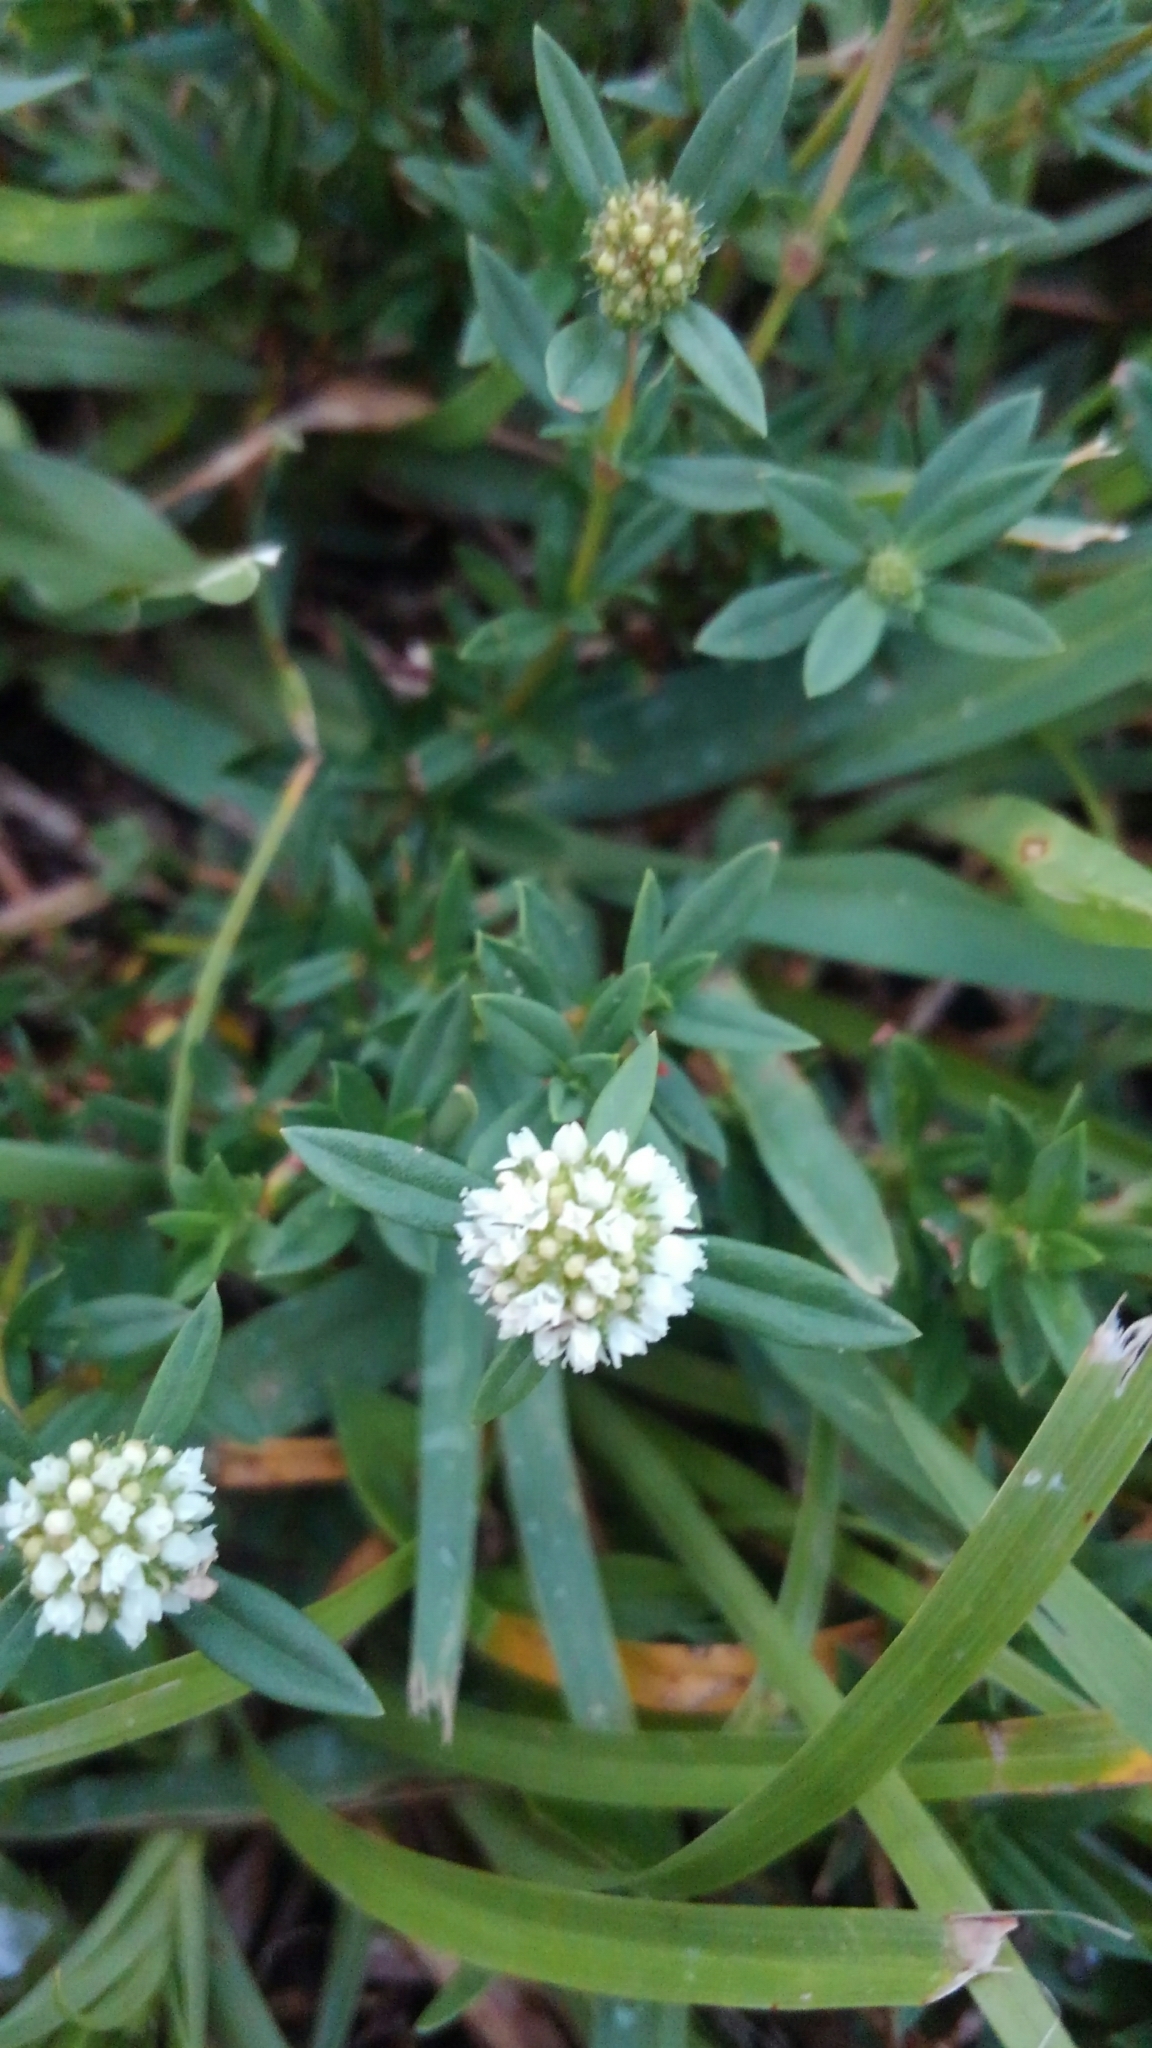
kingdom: Plantae
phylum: Tracheophyta
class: Magnoliopsida
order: Gentianales
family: Rubiaceae
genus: Spermacoce
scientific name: Spermacoce verticillata
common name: Shrubby false buttonweed
